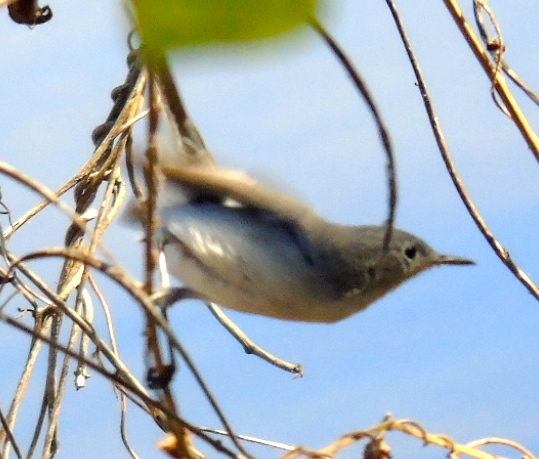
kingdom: Animalia
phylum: Chordata
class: Aves
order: Passeriformes
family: Polioptilidae
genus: Polioptila
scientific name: Polioptila caerulea
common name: Blue-gray gnatcatcher
